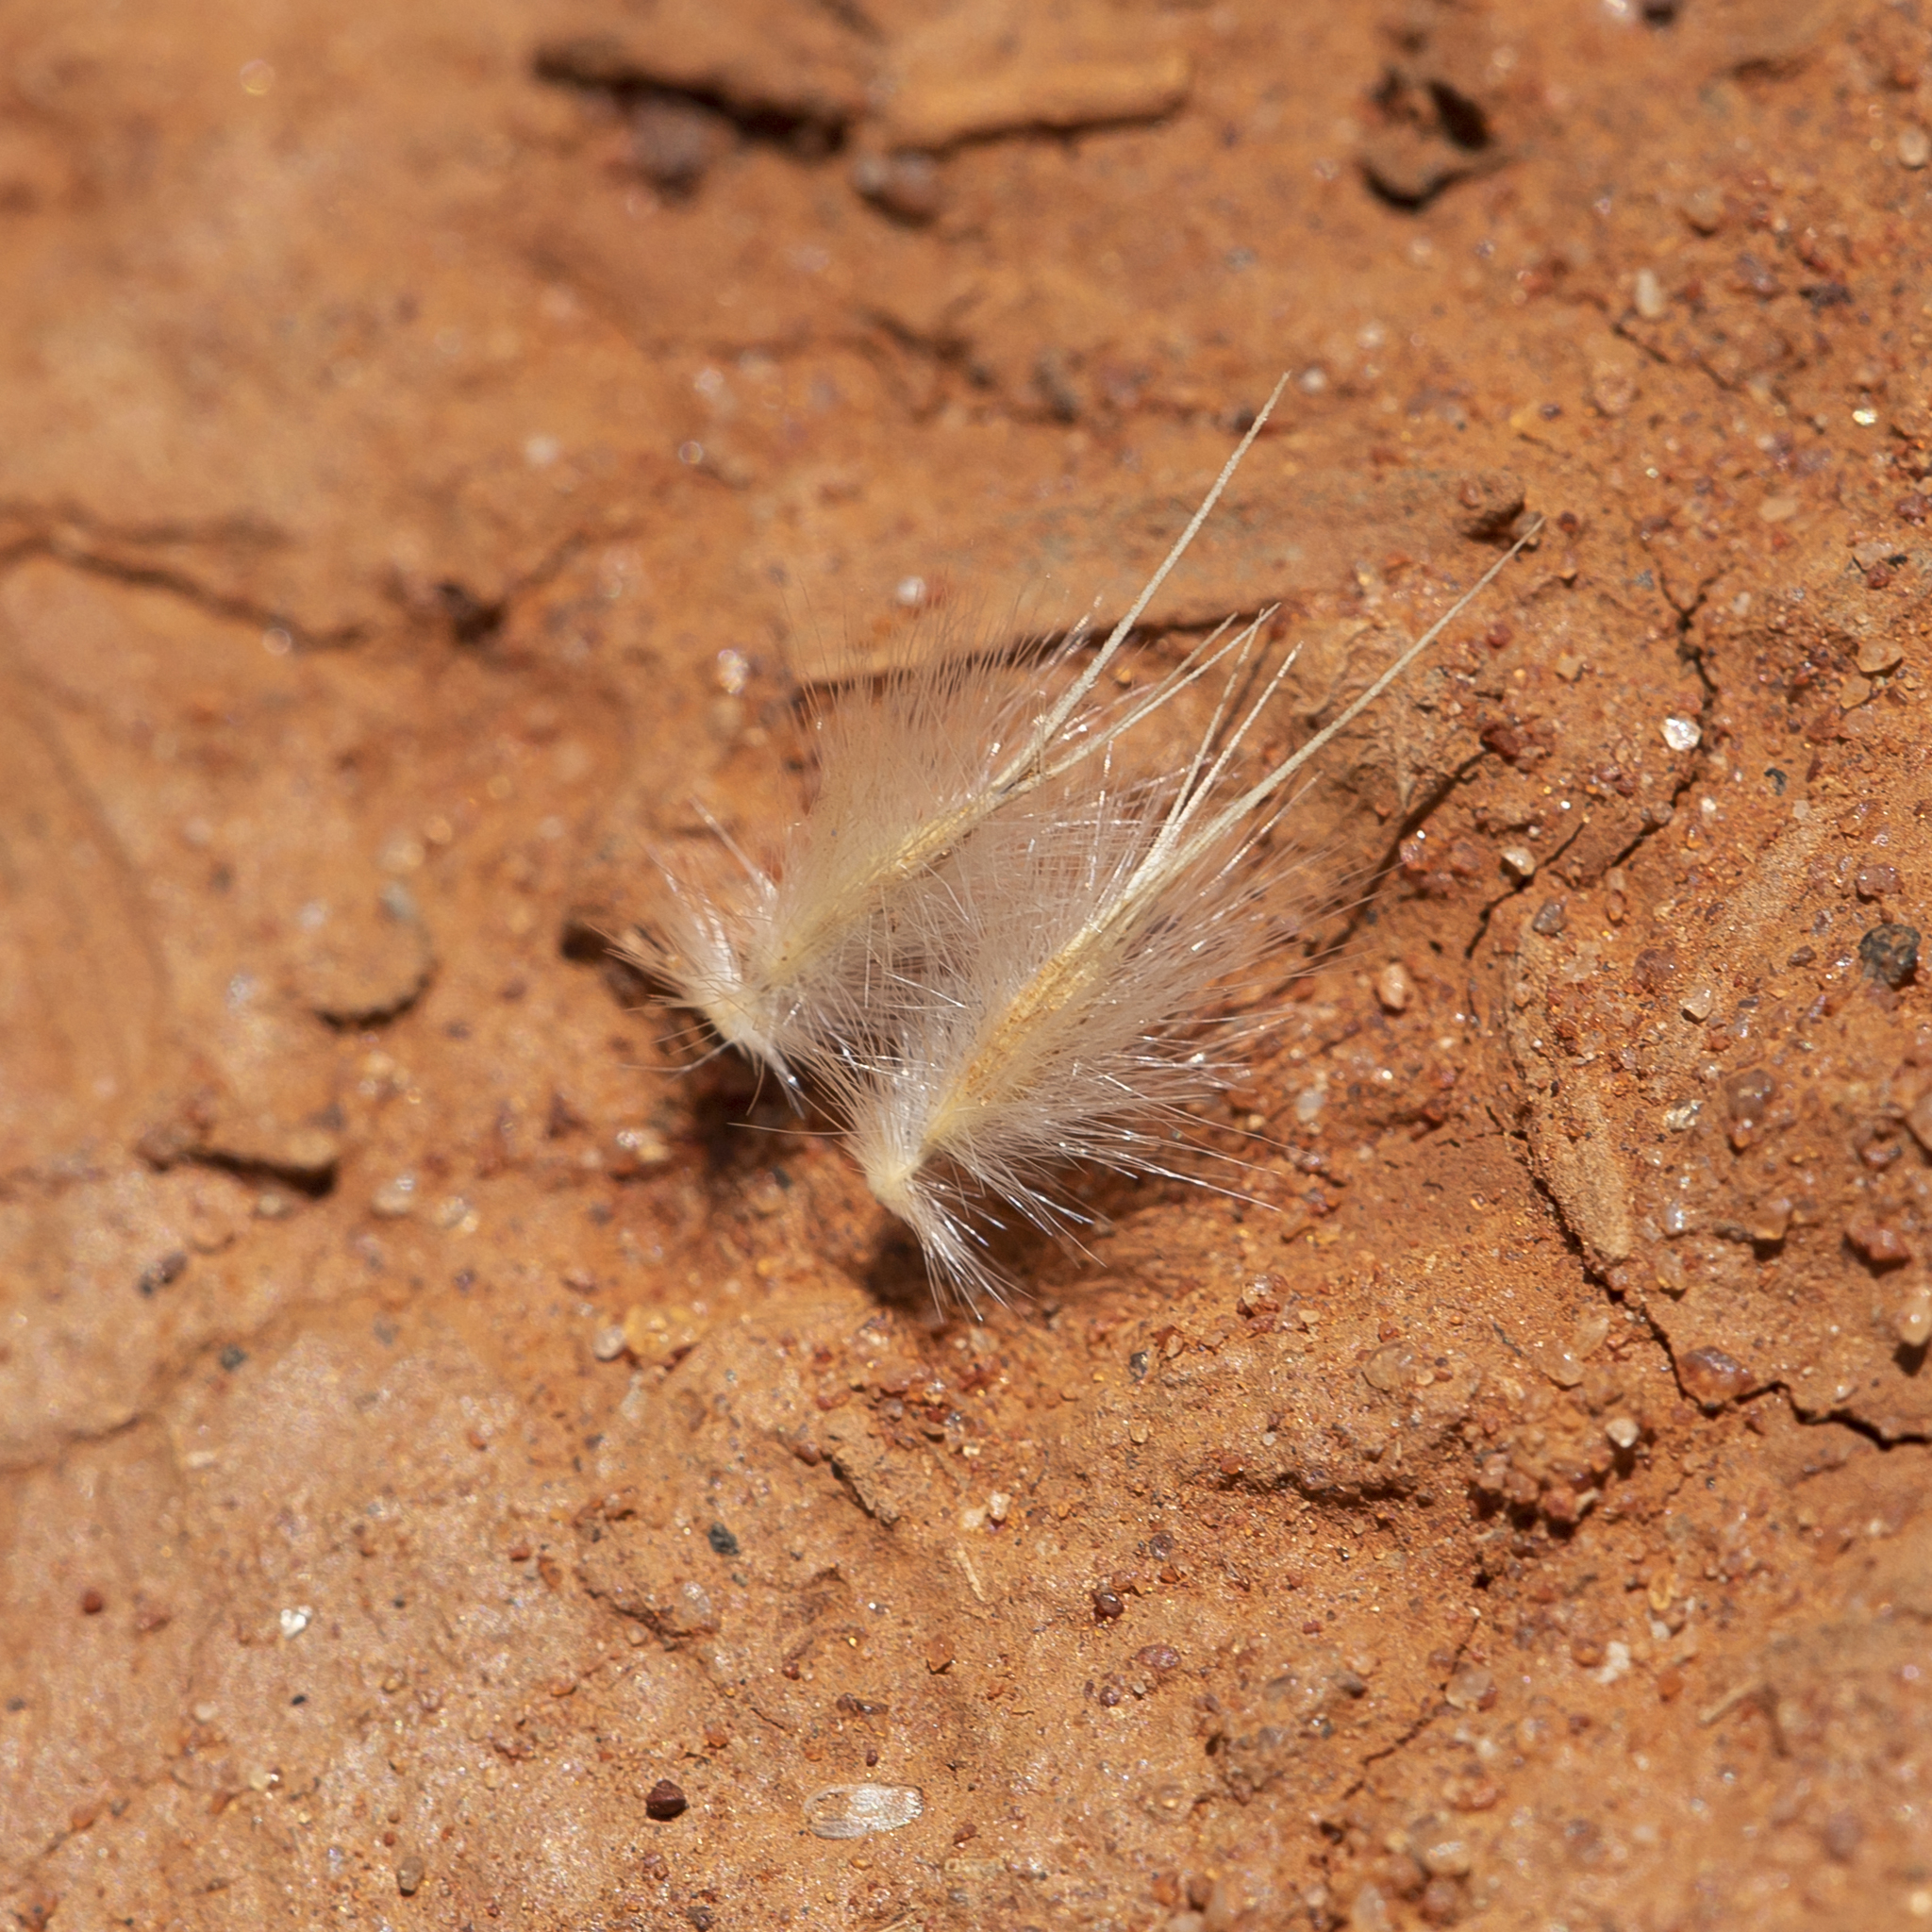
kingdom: Plantae
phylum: Tracheophyta
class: Liliopsida
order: Poales
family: Poaceae
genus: Eriachne
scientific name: Eriachne aristidea
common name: Three-awn wanderrie grass
